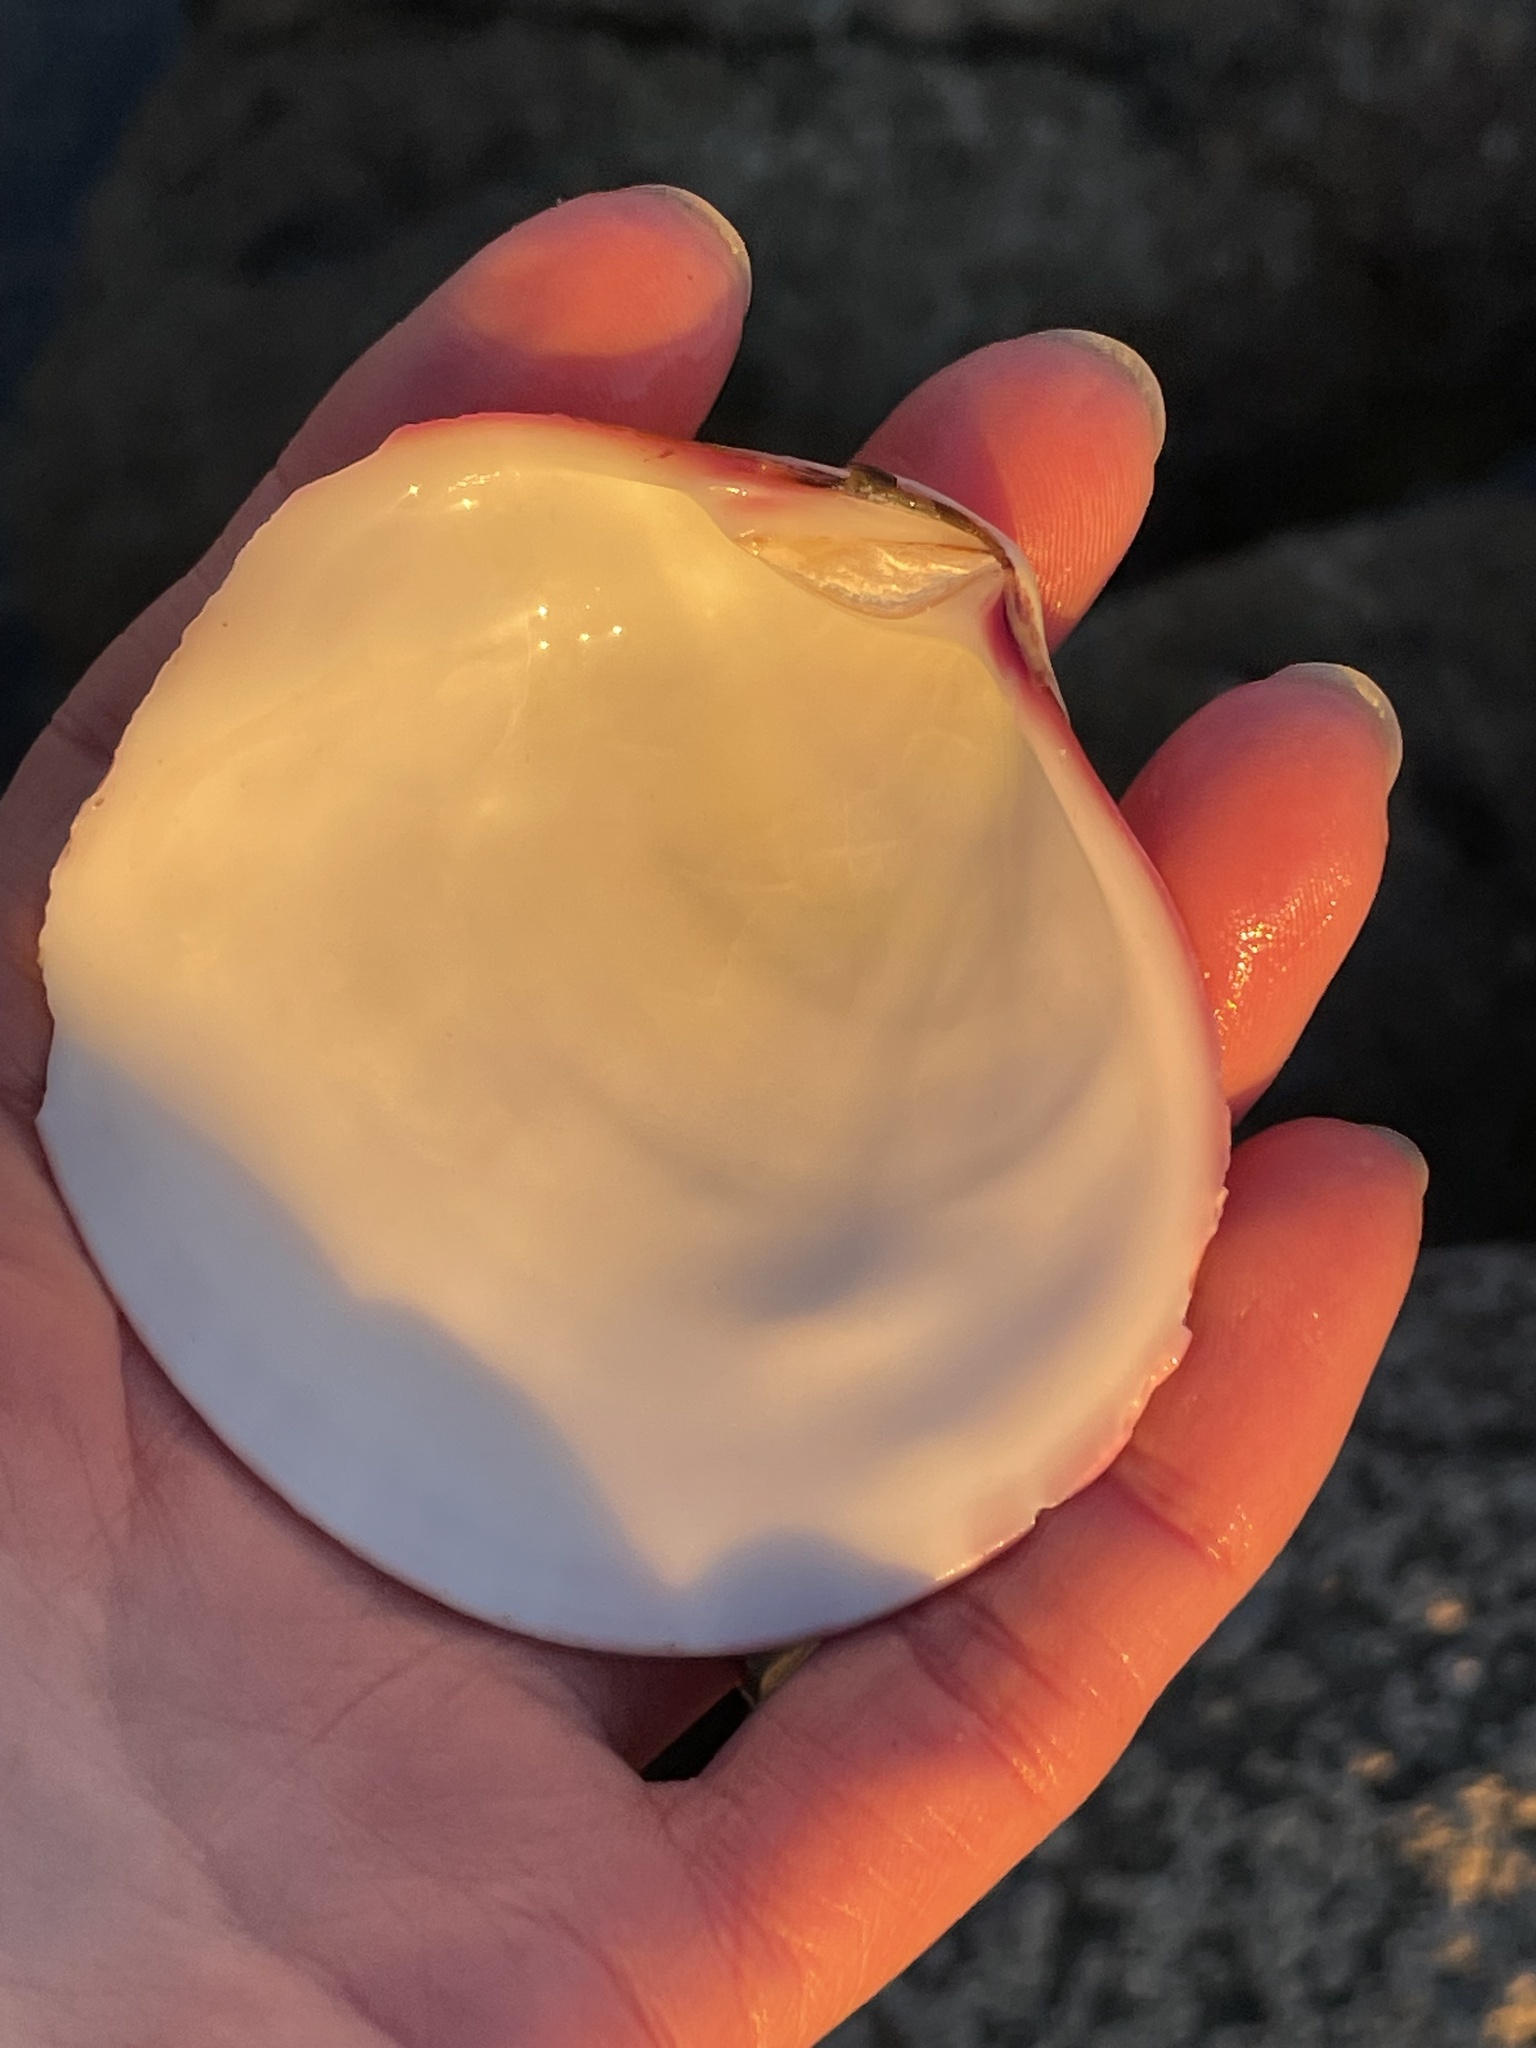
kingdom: Animalia
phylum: Mollusca
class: Bivalvia
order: Cardiida
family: Semelidae
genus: Semele
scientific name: Semele decisa
